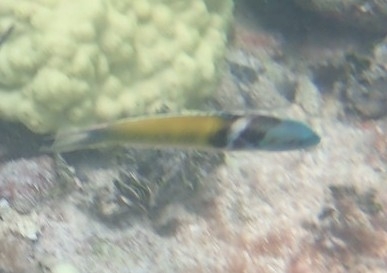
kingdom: Animalia
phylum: Chordata
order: Perciformes
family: Labridae
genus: Thalassoma
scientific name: Thalassoma bifasciatum
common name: Bluehead wrasse
